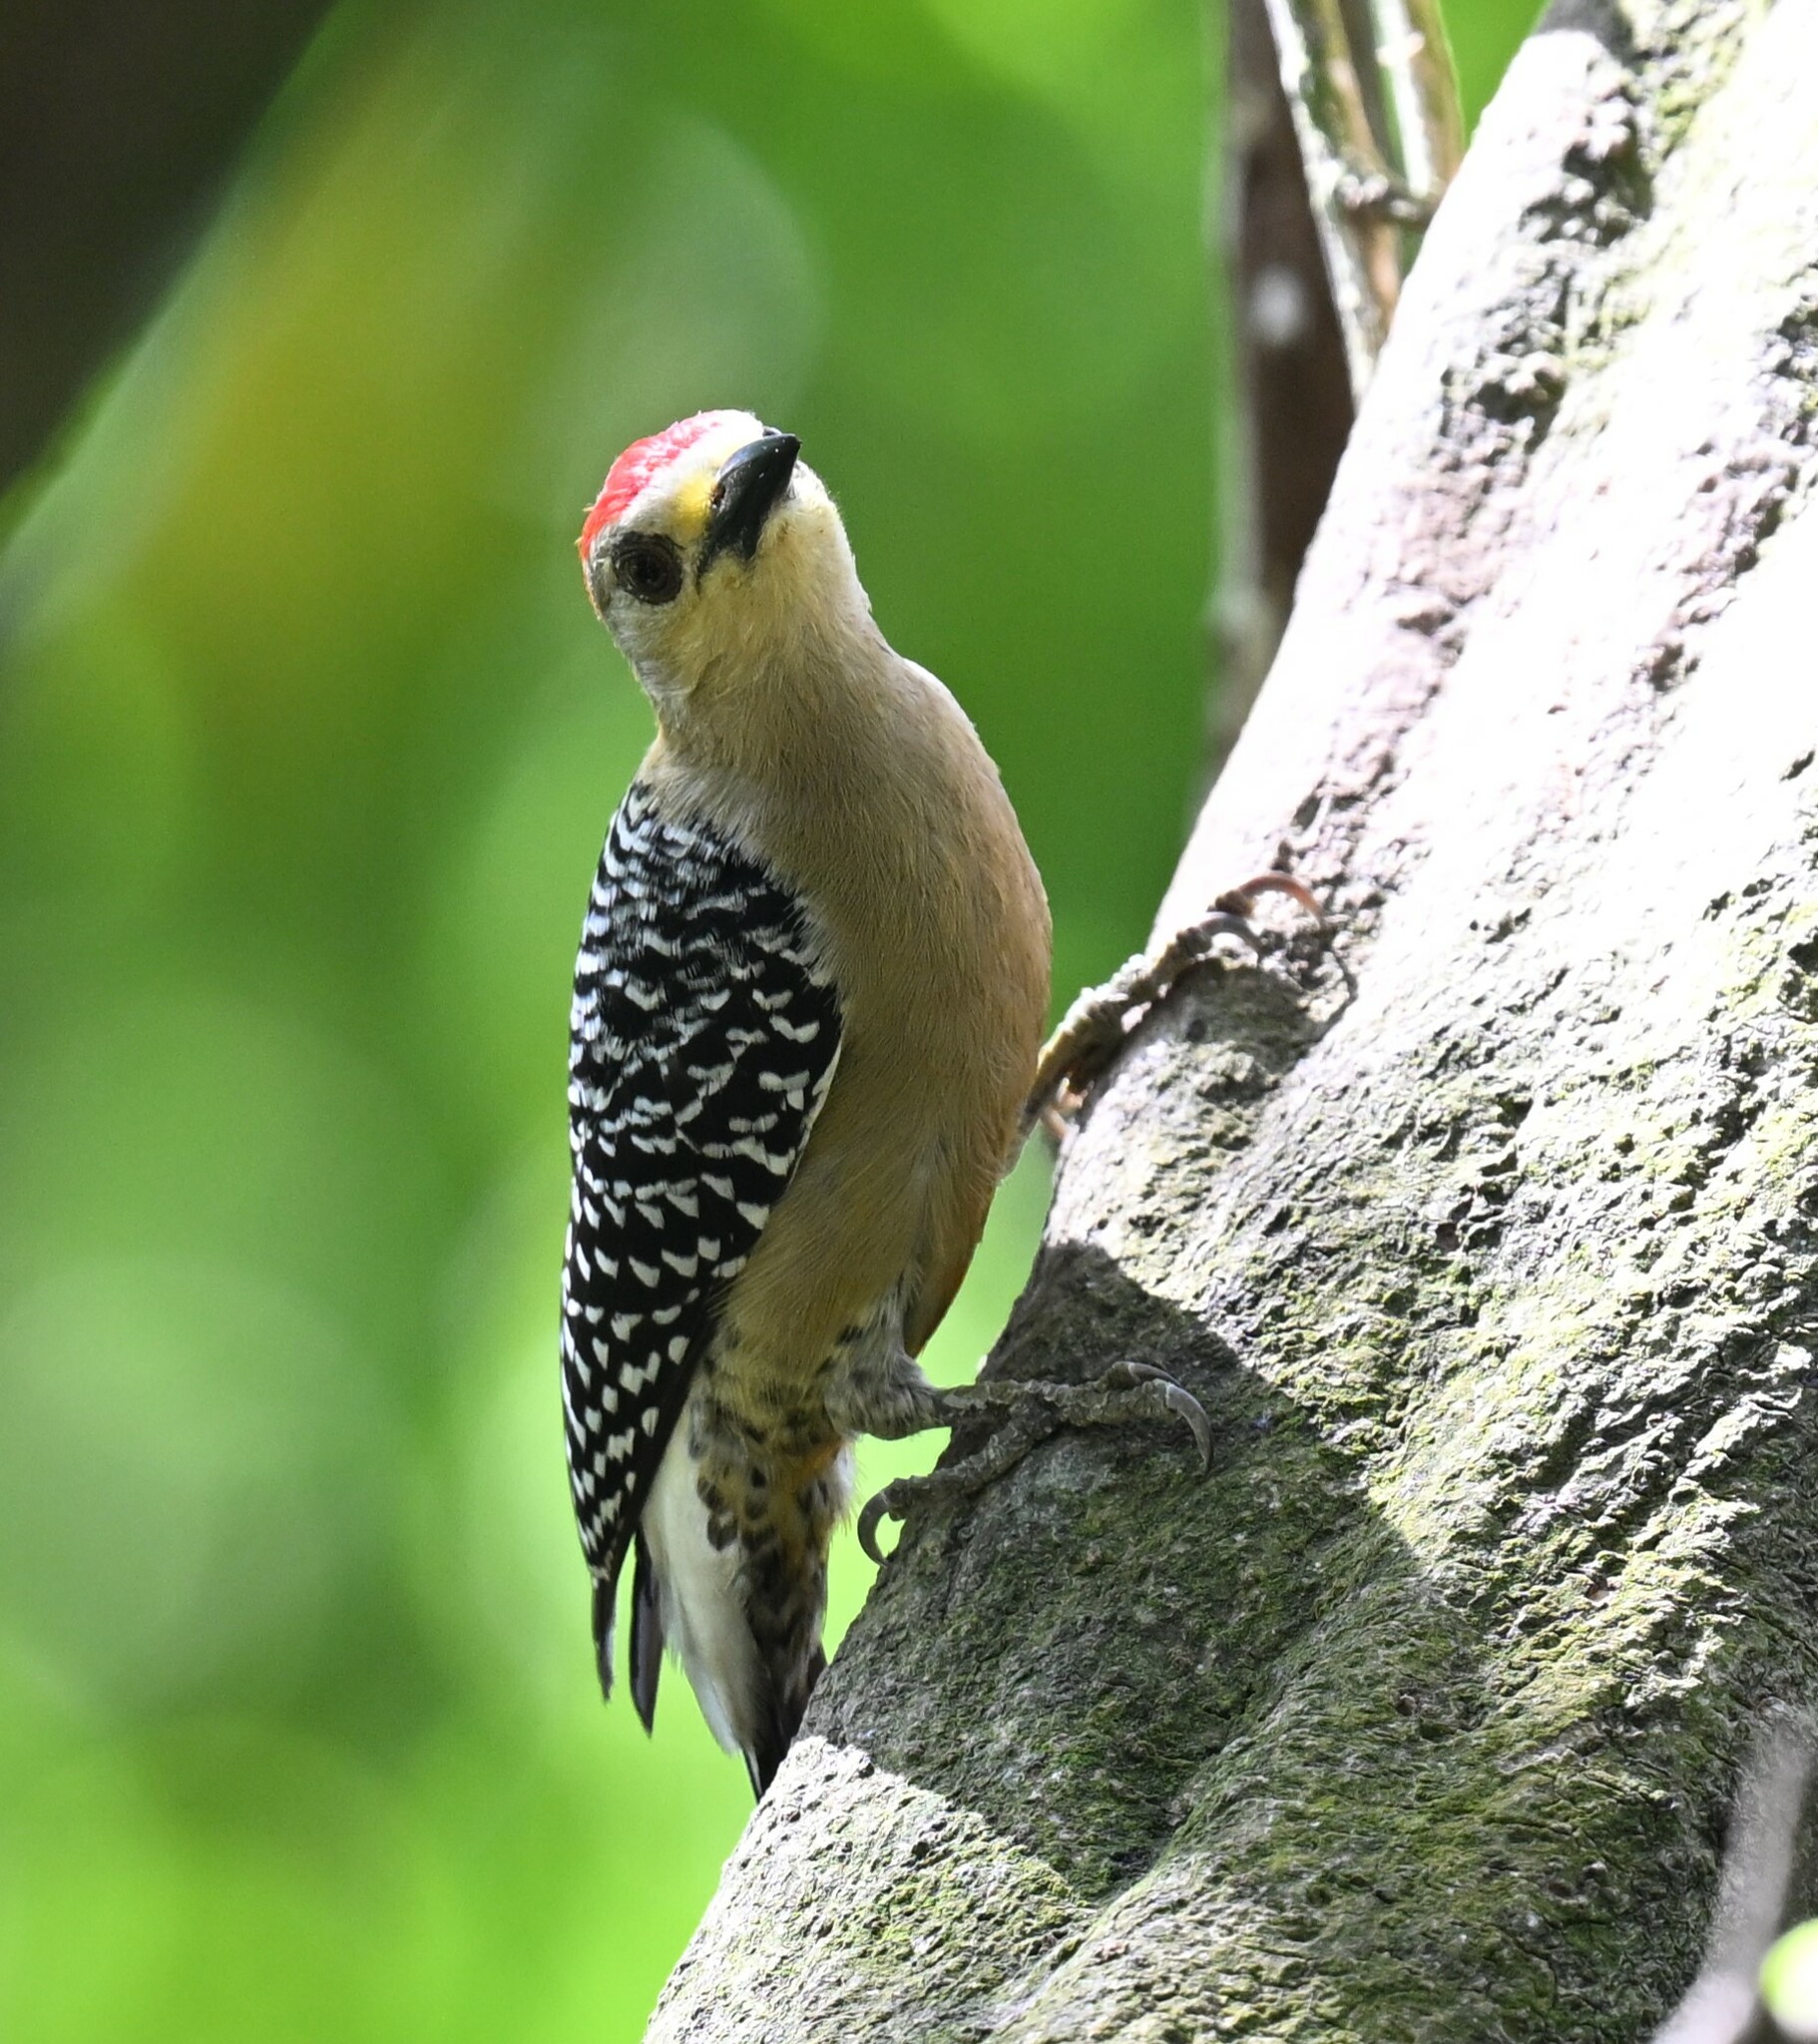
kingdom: Animalia
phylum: Chordata
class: Aves
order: Piciformes
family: Picidae
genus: Melanerpes
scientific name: Melanerpes rubricapillus
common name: Red-crowned woodpecker
